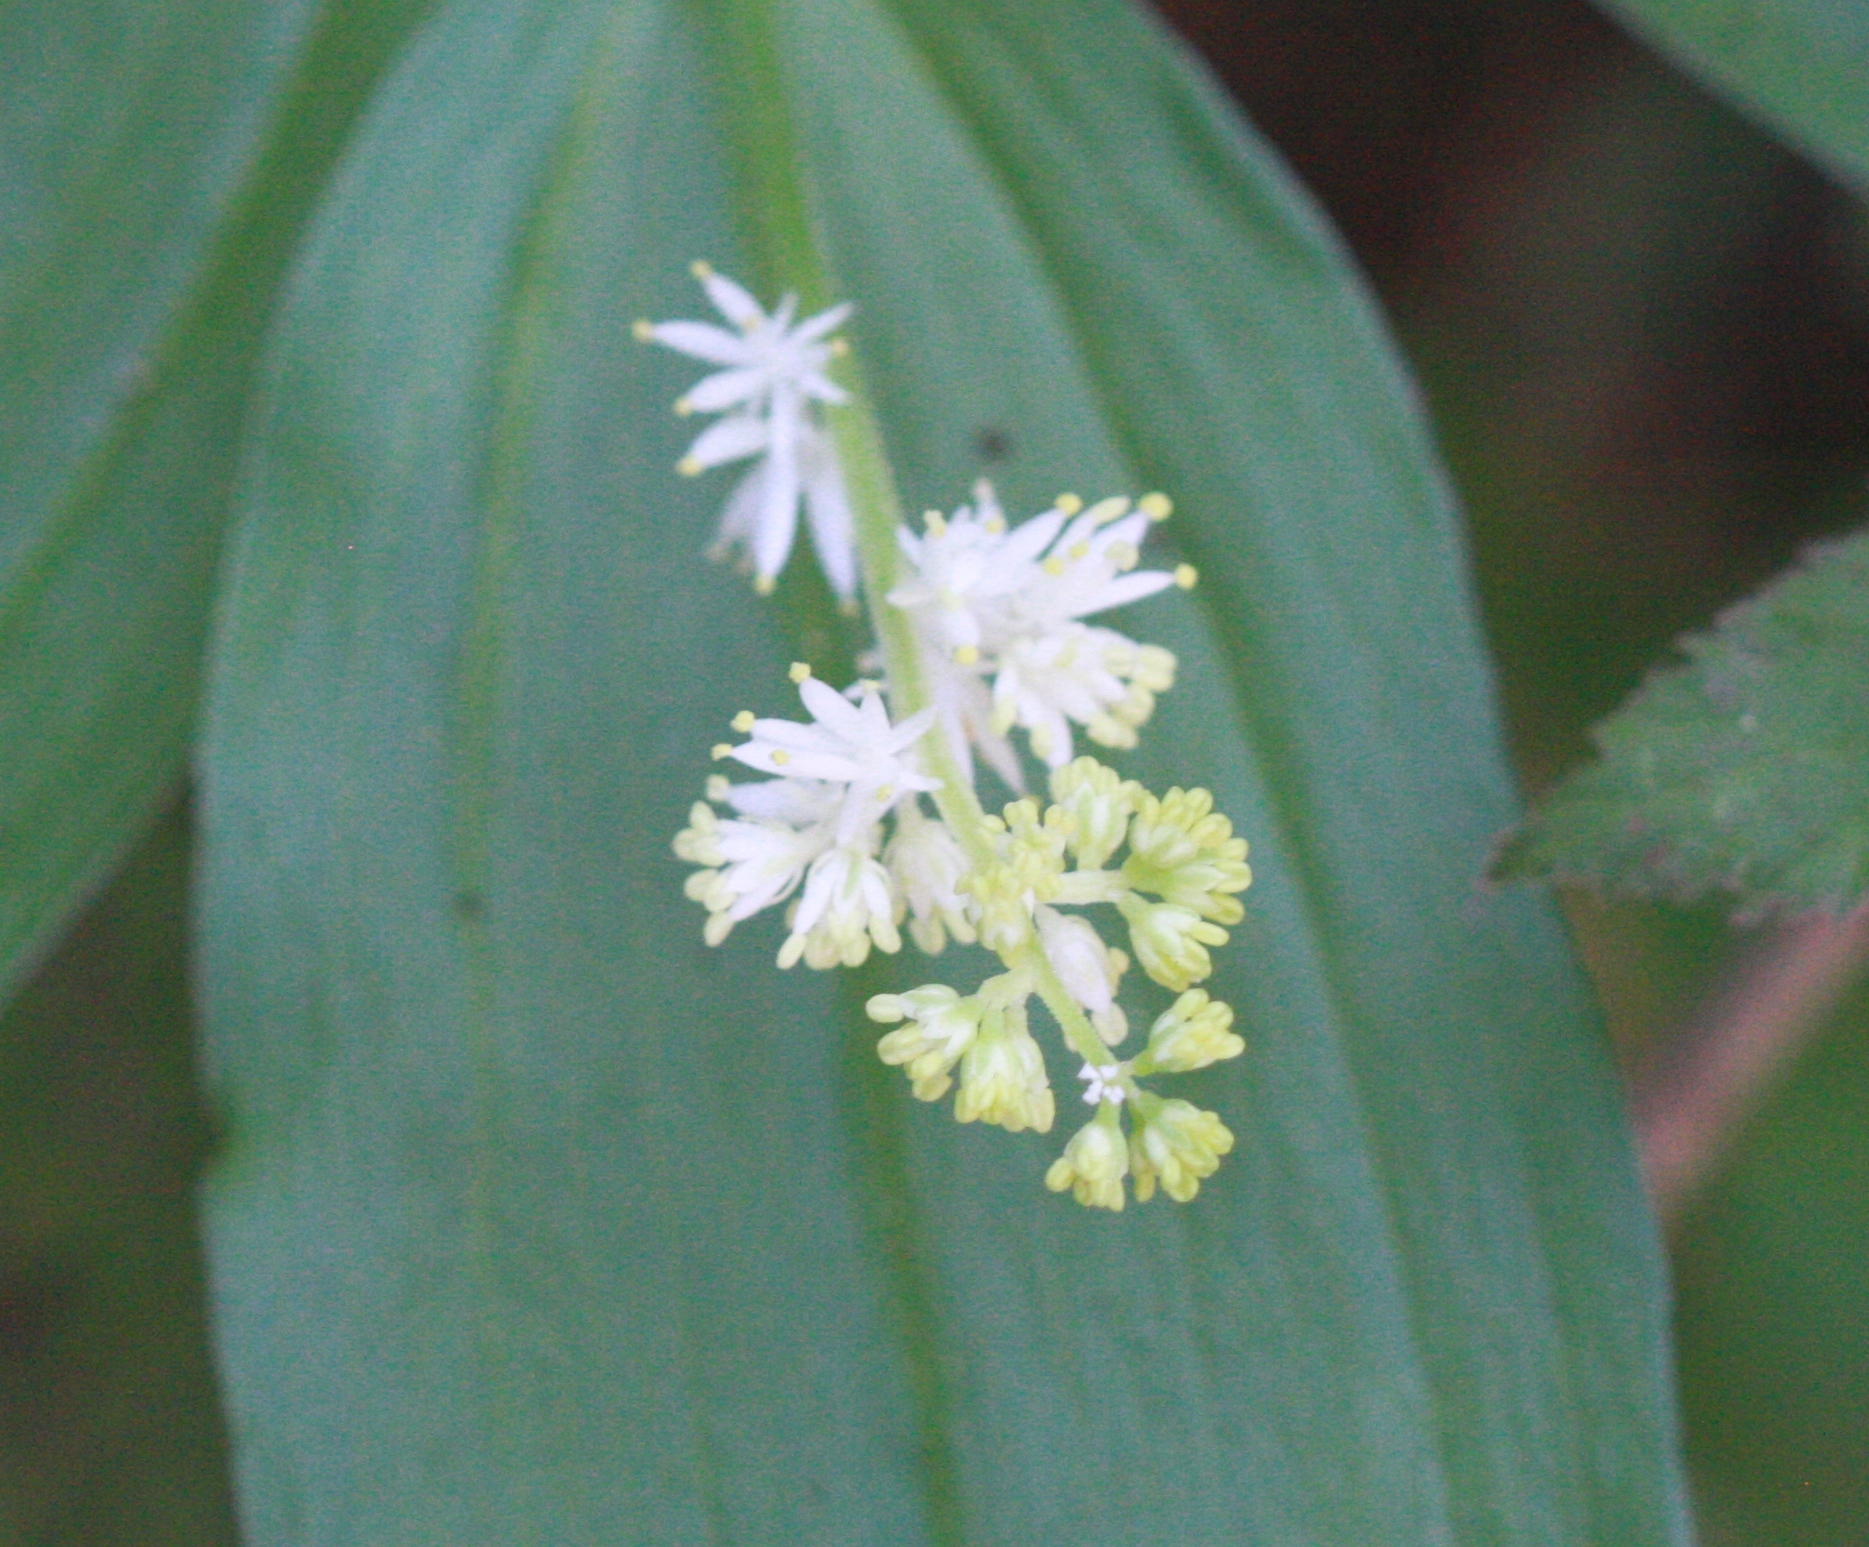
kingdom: Plantae
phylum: Tracheophyta
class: Liliopsida
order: Asparagales
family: Asparagaceae
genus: Maianthemum
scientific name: Maianthemum racemosum
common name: False spikenard
